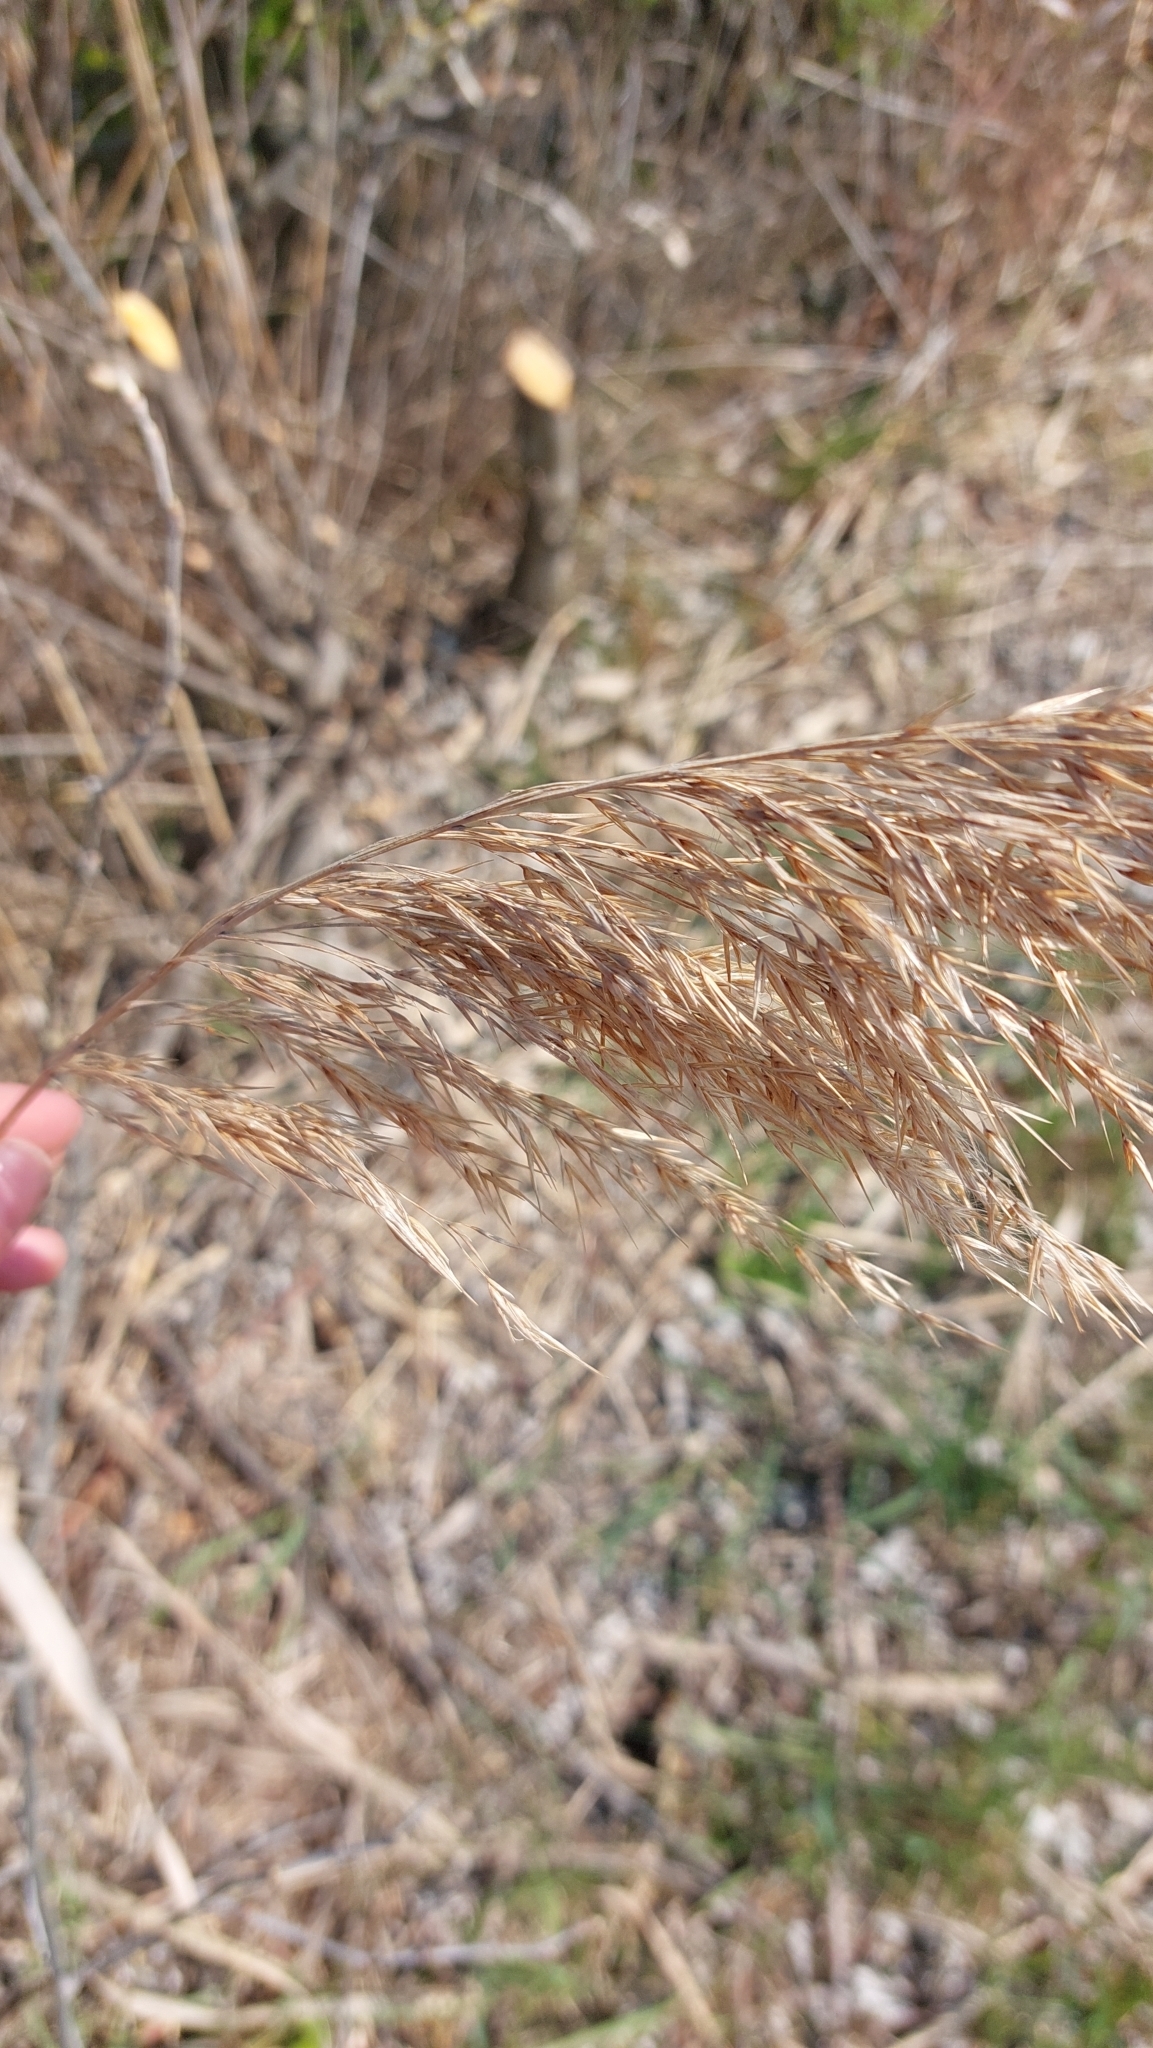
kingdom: Plantae
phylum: Tracheophyta
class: Liliopsida
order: Poales
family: Poaceae
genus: Phragmites
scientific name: Phragmites australis
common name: Common reed
